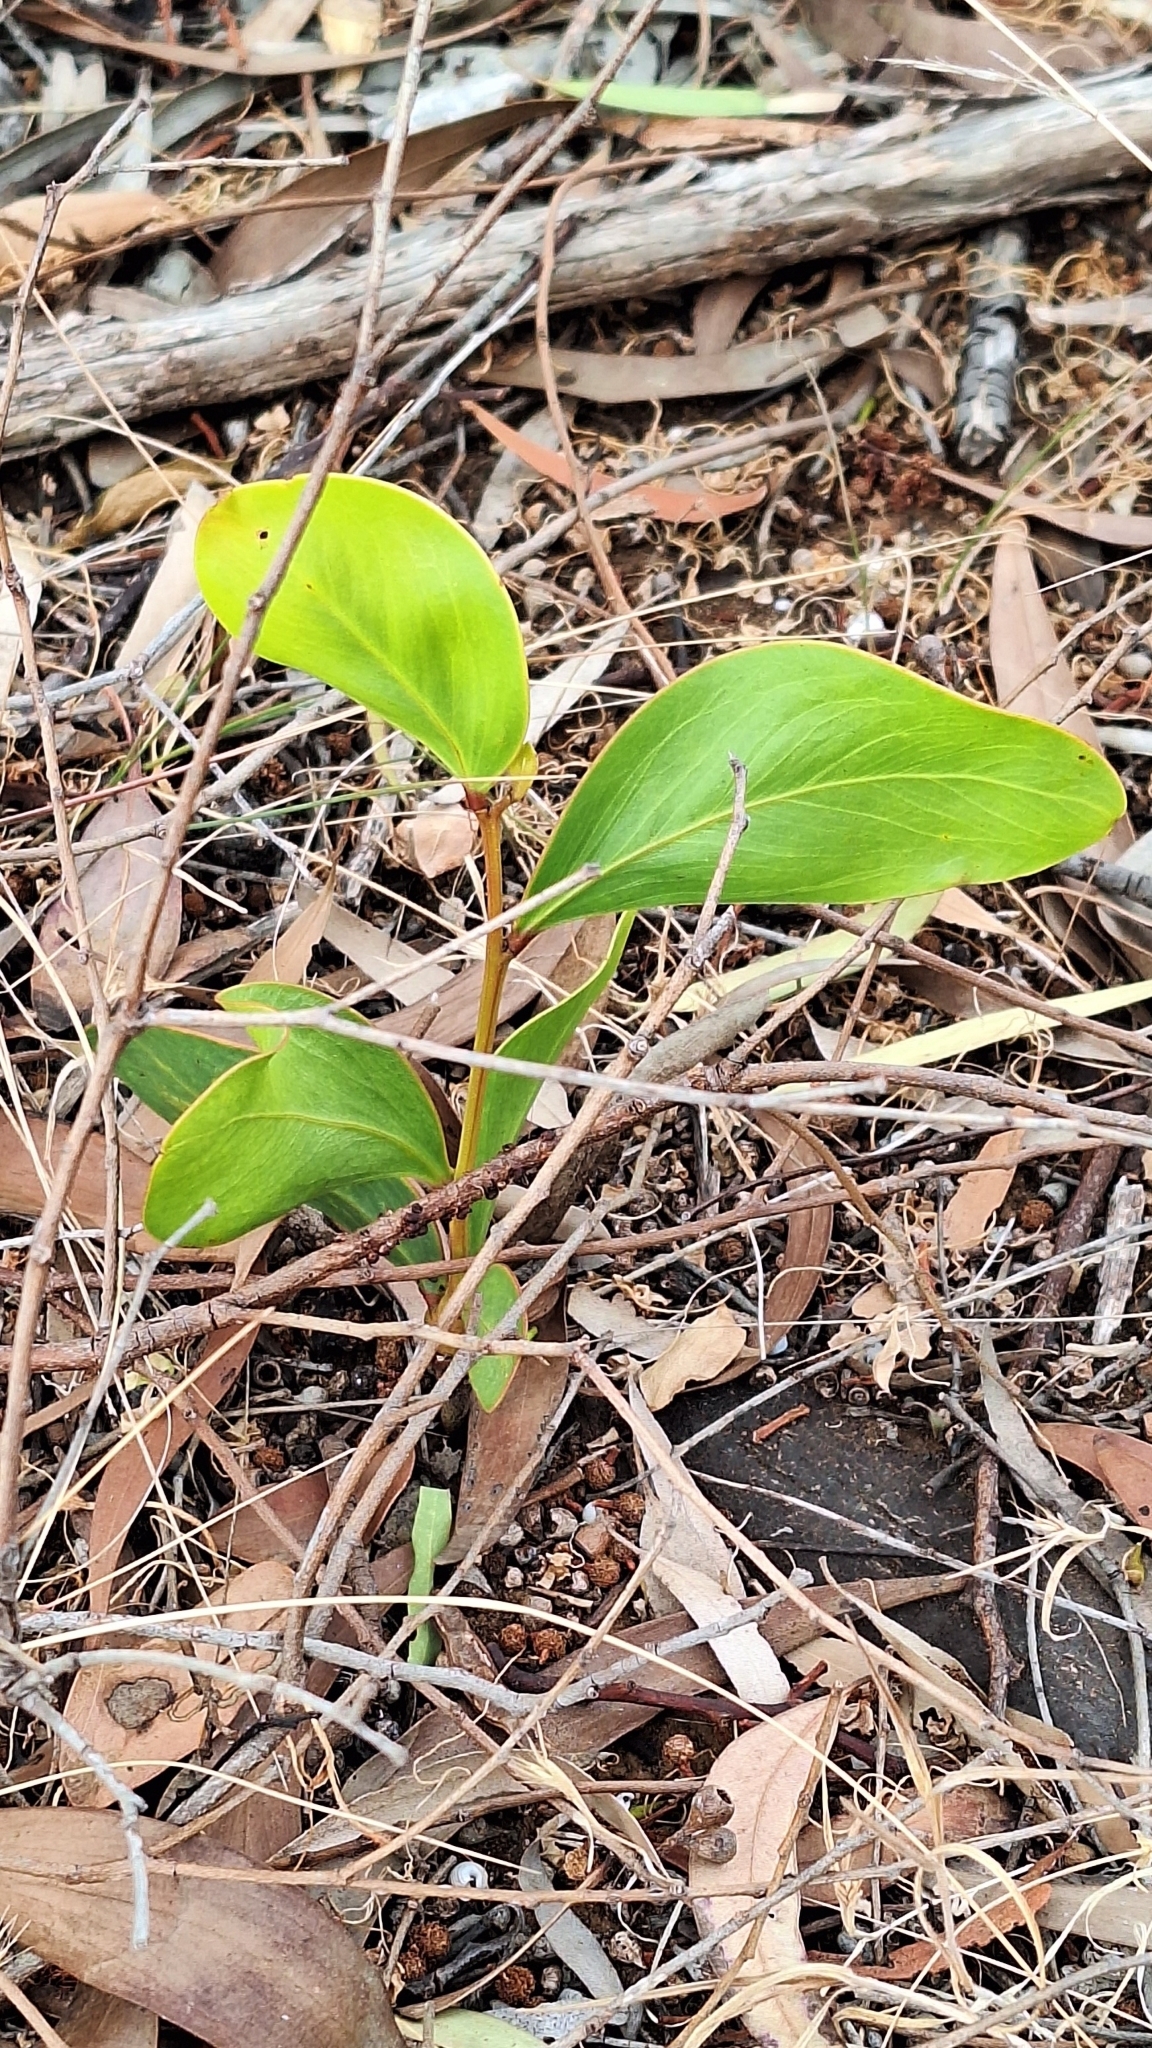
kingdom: Plantae
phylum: Tracheophyta
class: Magnoliopsida
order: Fabales
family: Fabaceae
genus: Acacia
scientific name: Acacia pycnantha
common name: Golden wattle
